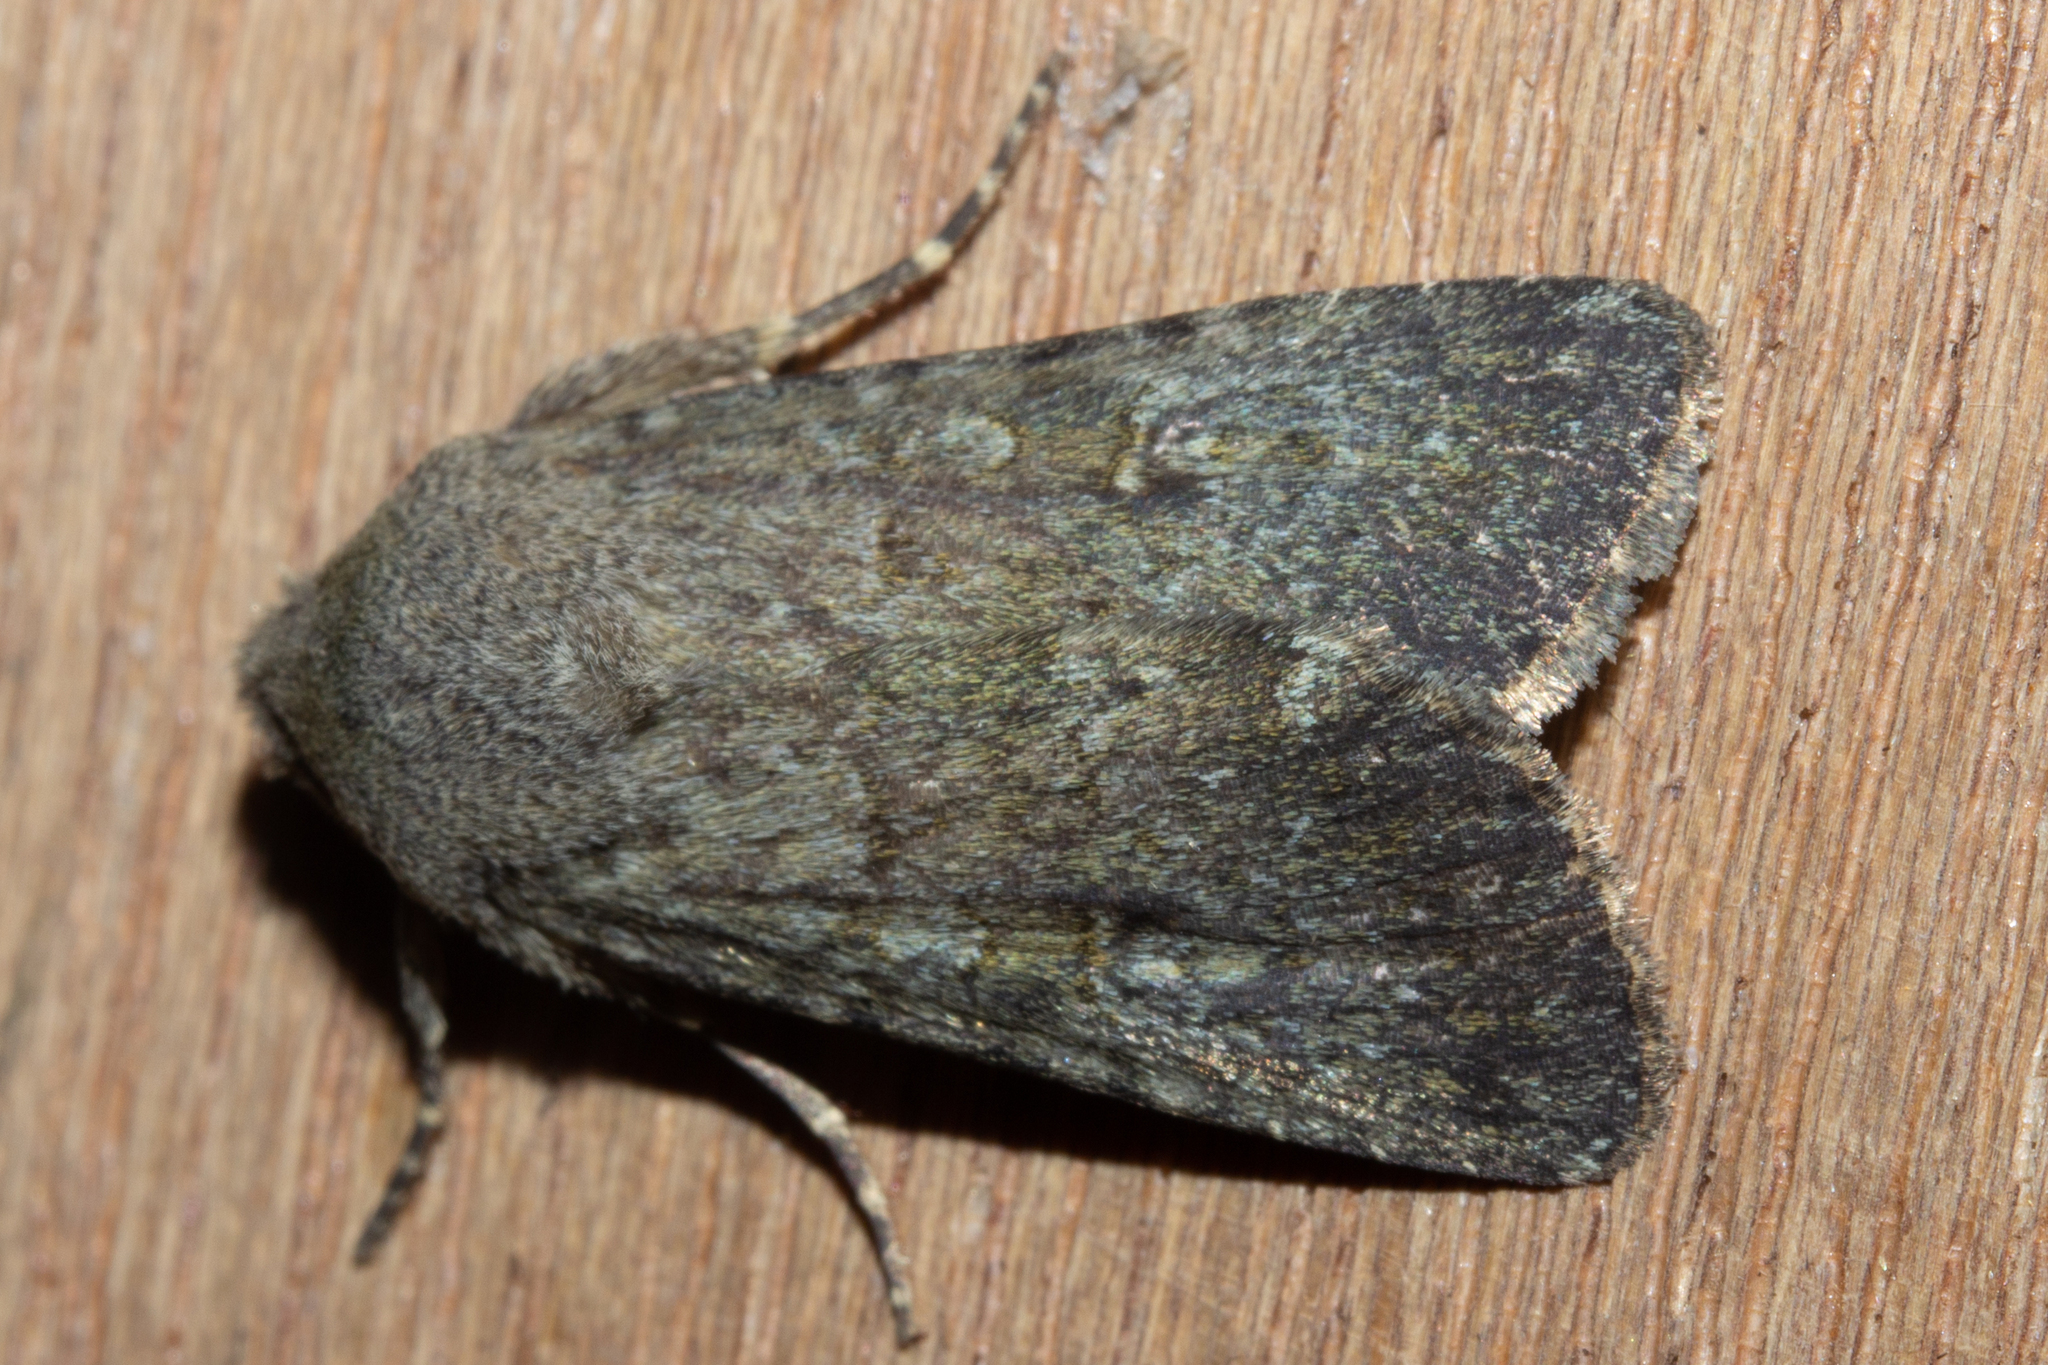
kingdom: Animalia
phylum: Arthropoda
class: Insecta
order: Lepidoptera
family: Noctuidae
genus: Ichneutica
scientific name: Ichneutica moderata
